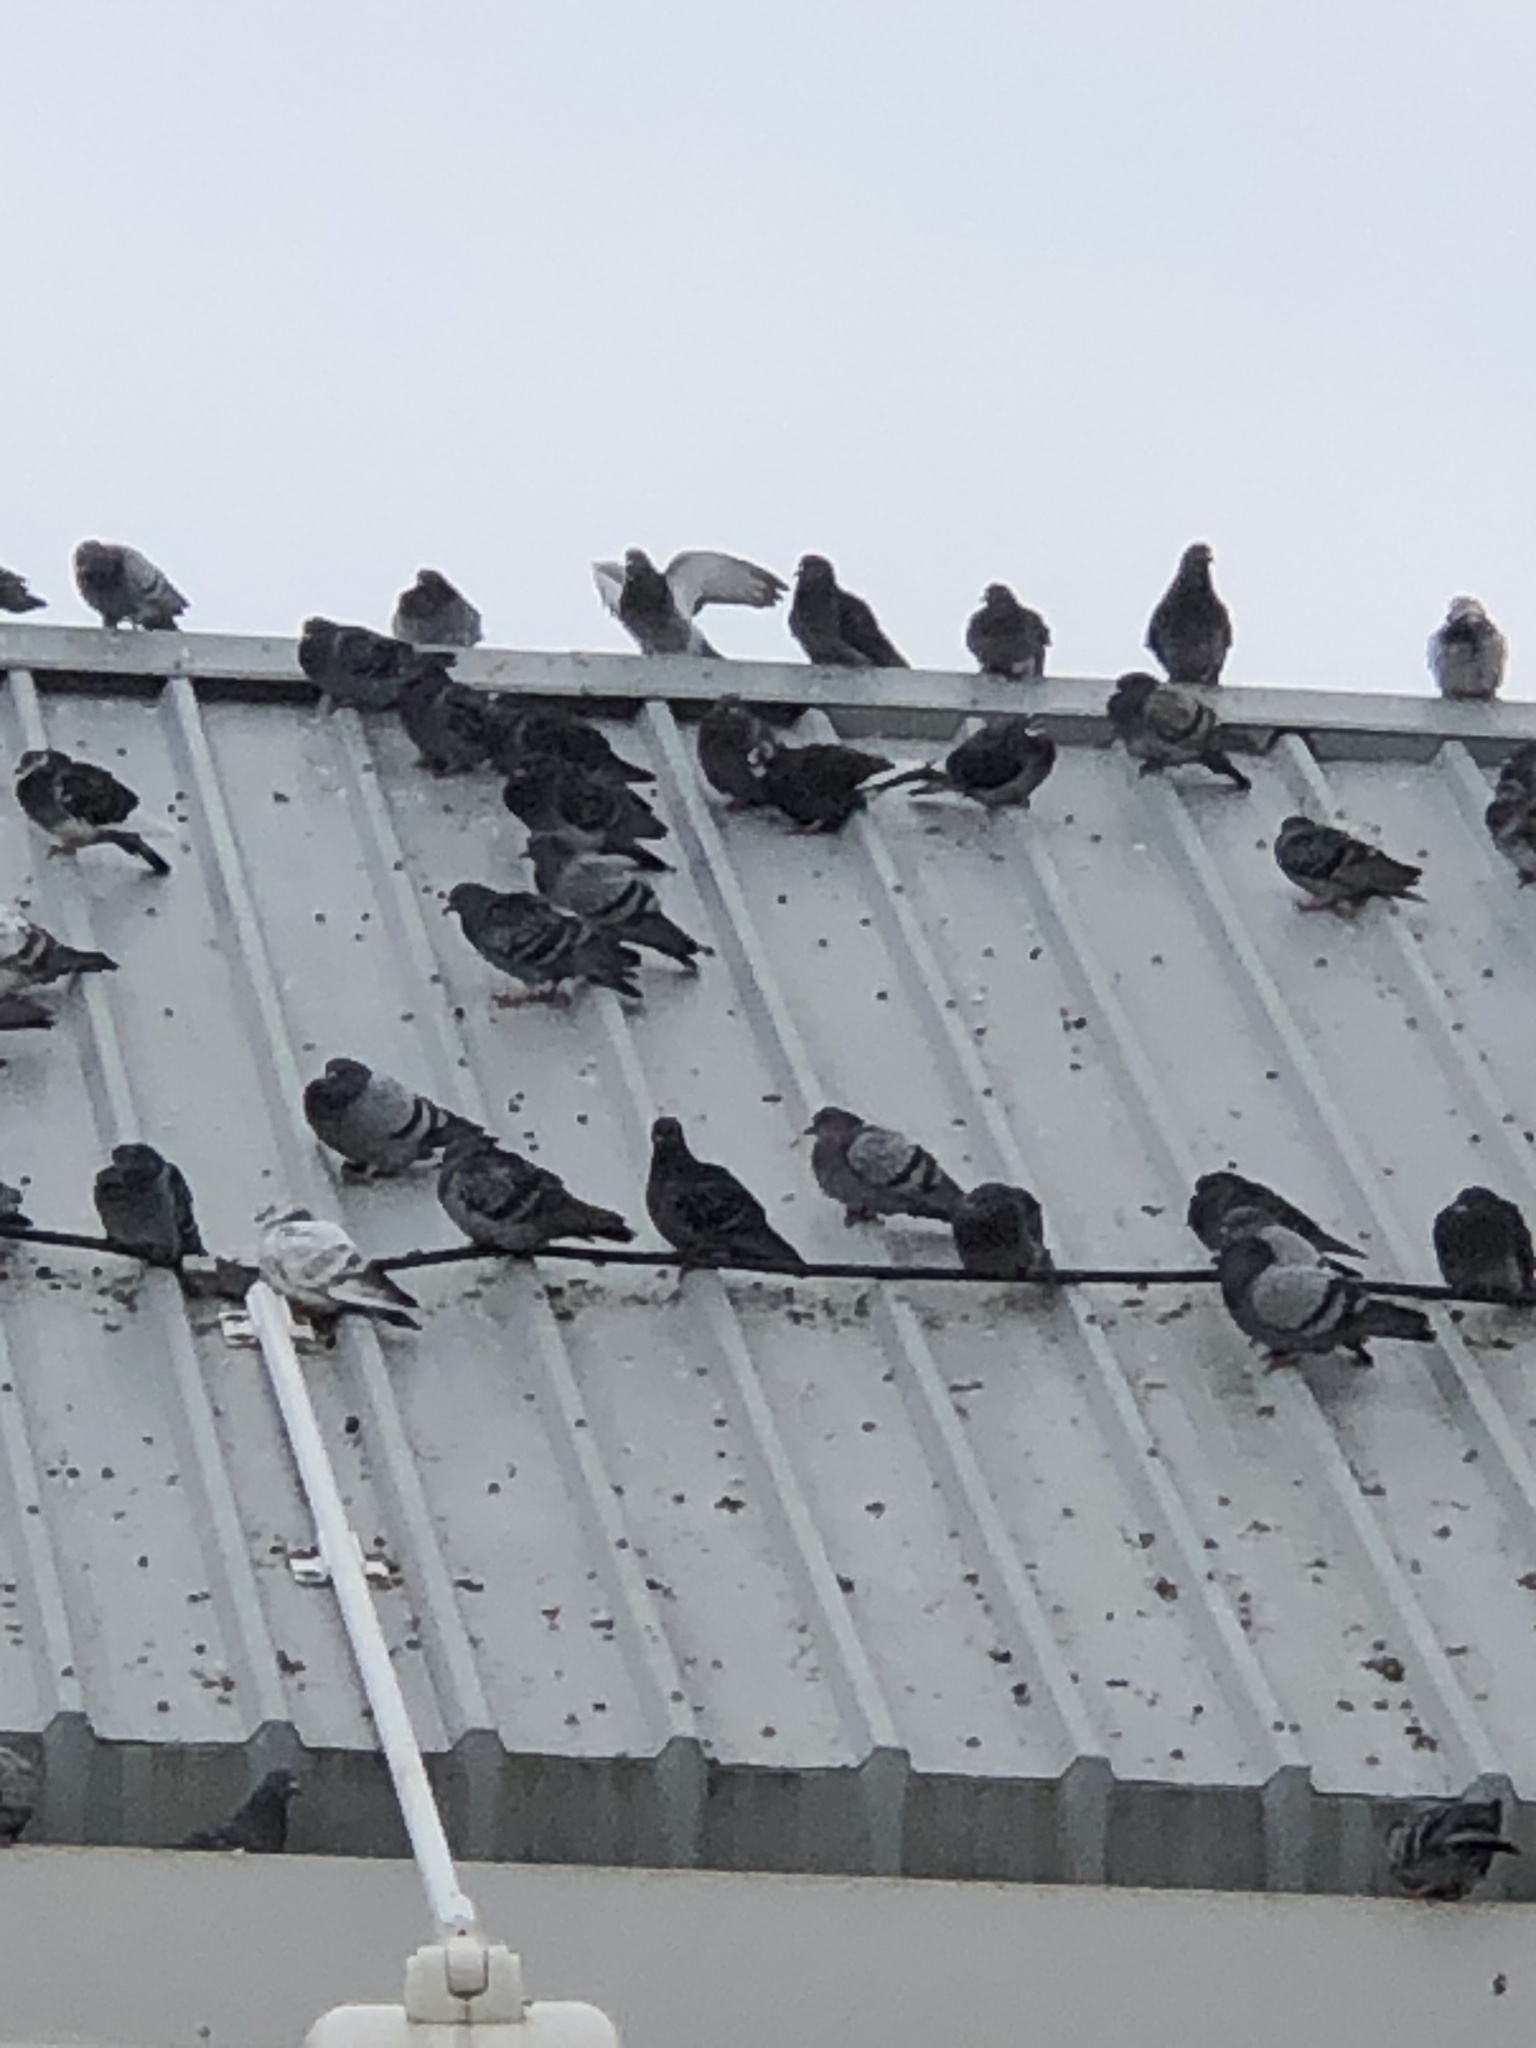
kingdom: Animalia
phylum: Chordata
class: Aves
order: Columbiformes
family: Columbidae
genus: Columba
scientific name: Columba livia
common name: Rock pigeon
